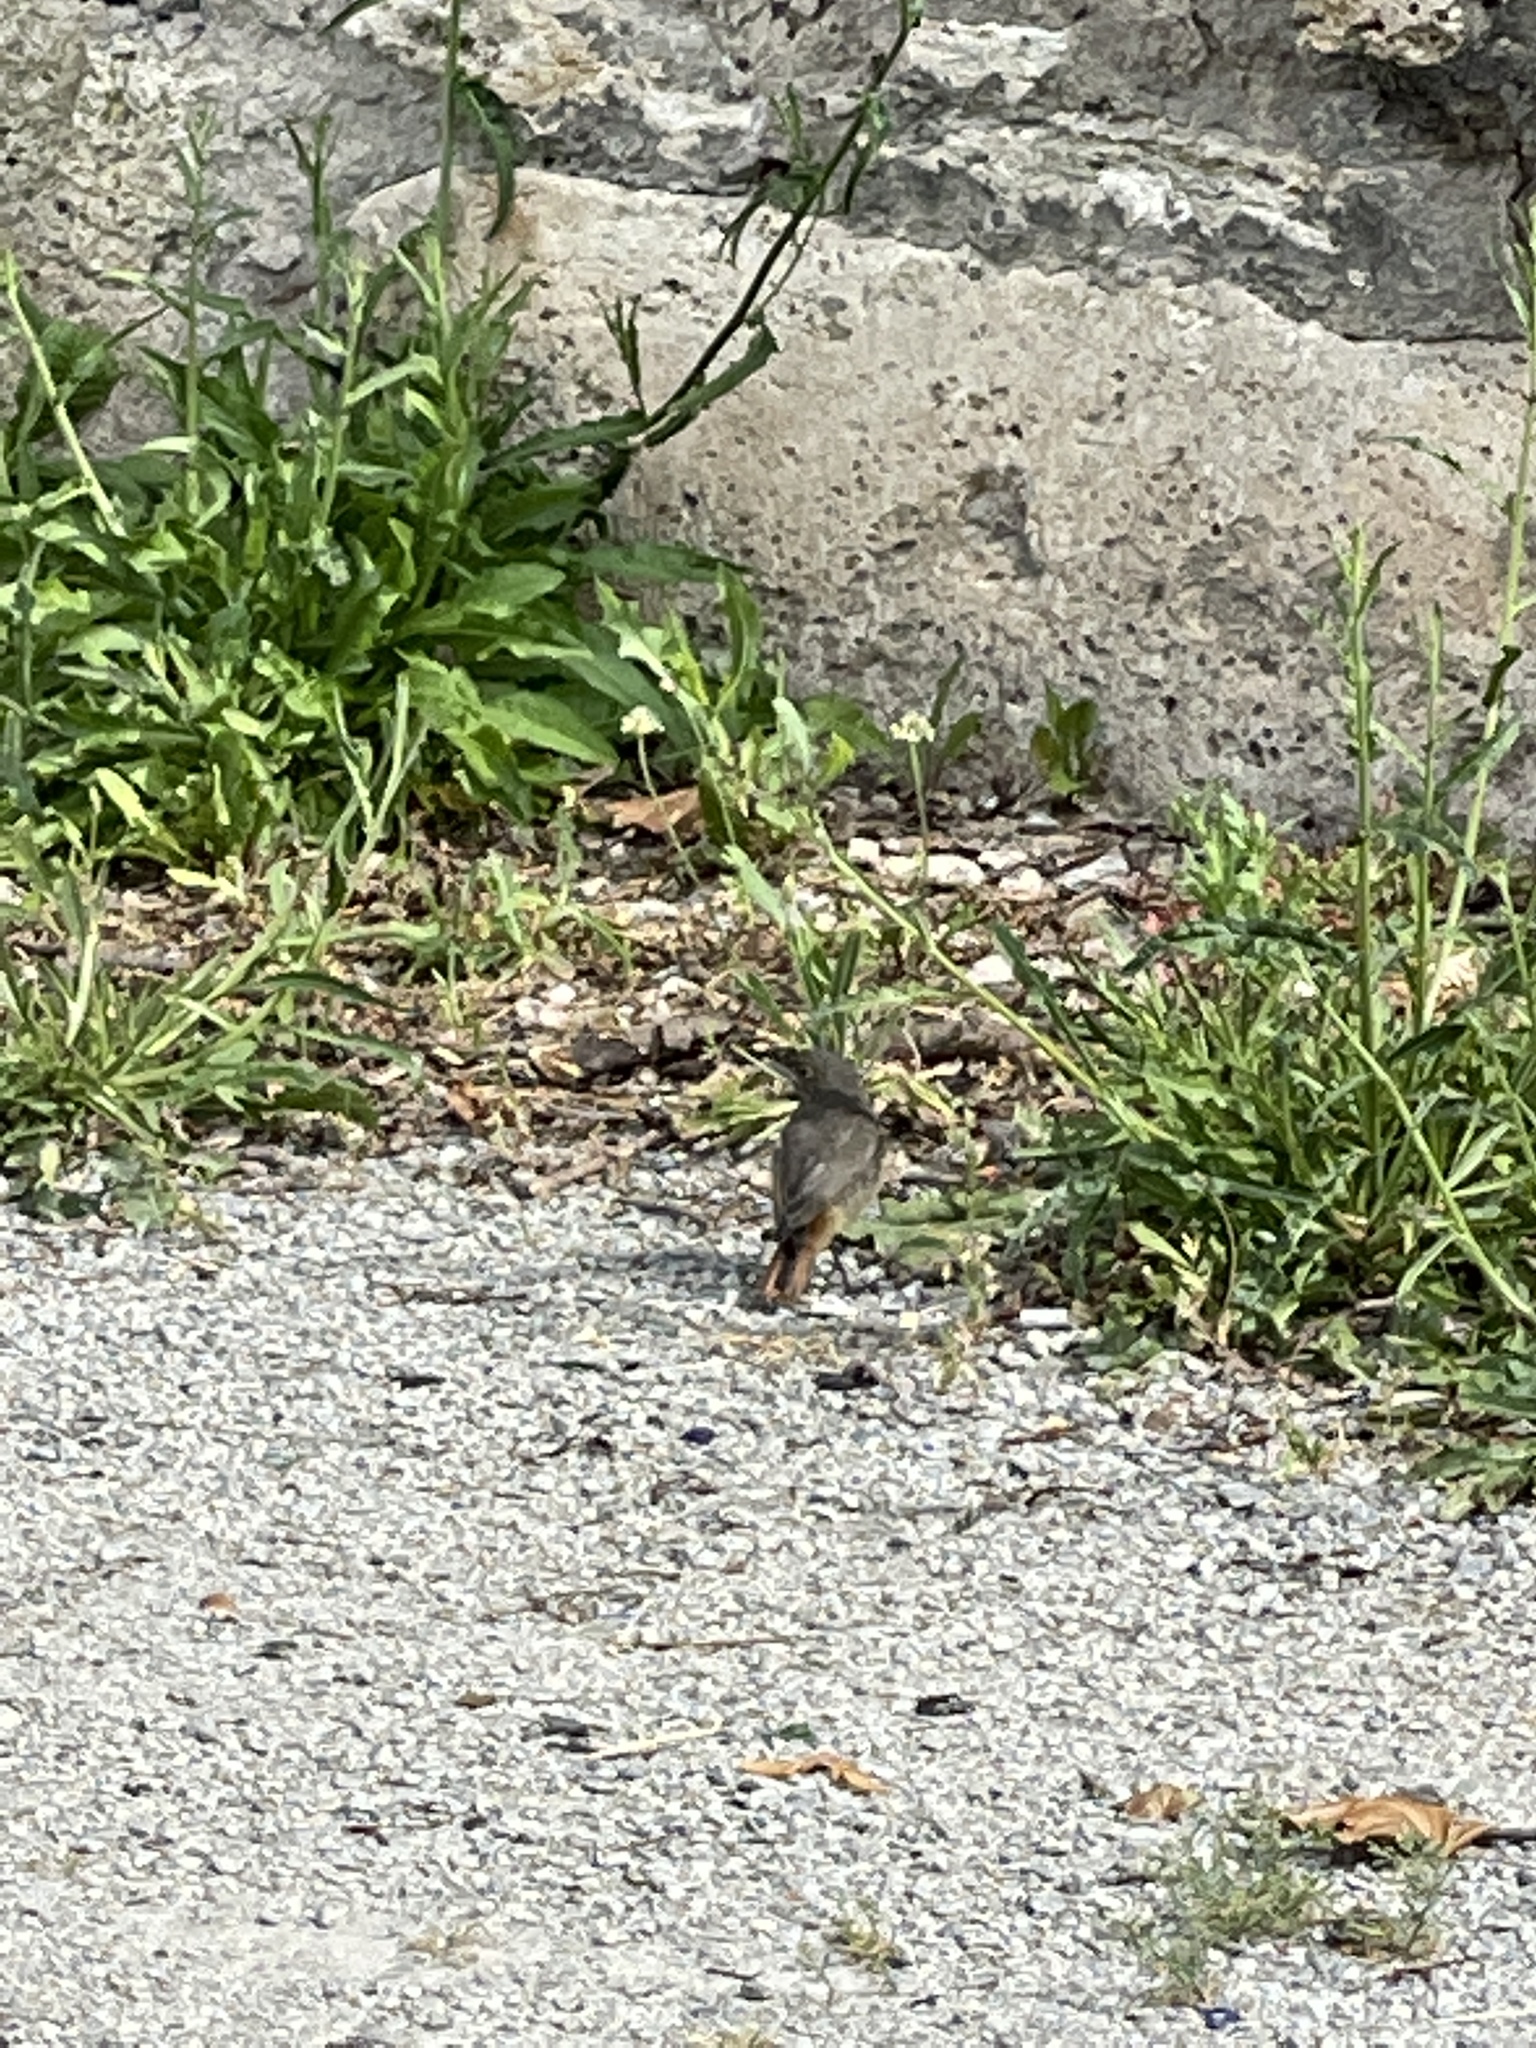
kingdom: Animalia
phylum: Chordata
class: Aves
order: Passeriformes
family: Muscicapidae
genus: Phoenicurus
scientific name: Phoenicurus ochruros
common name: Black redstart
